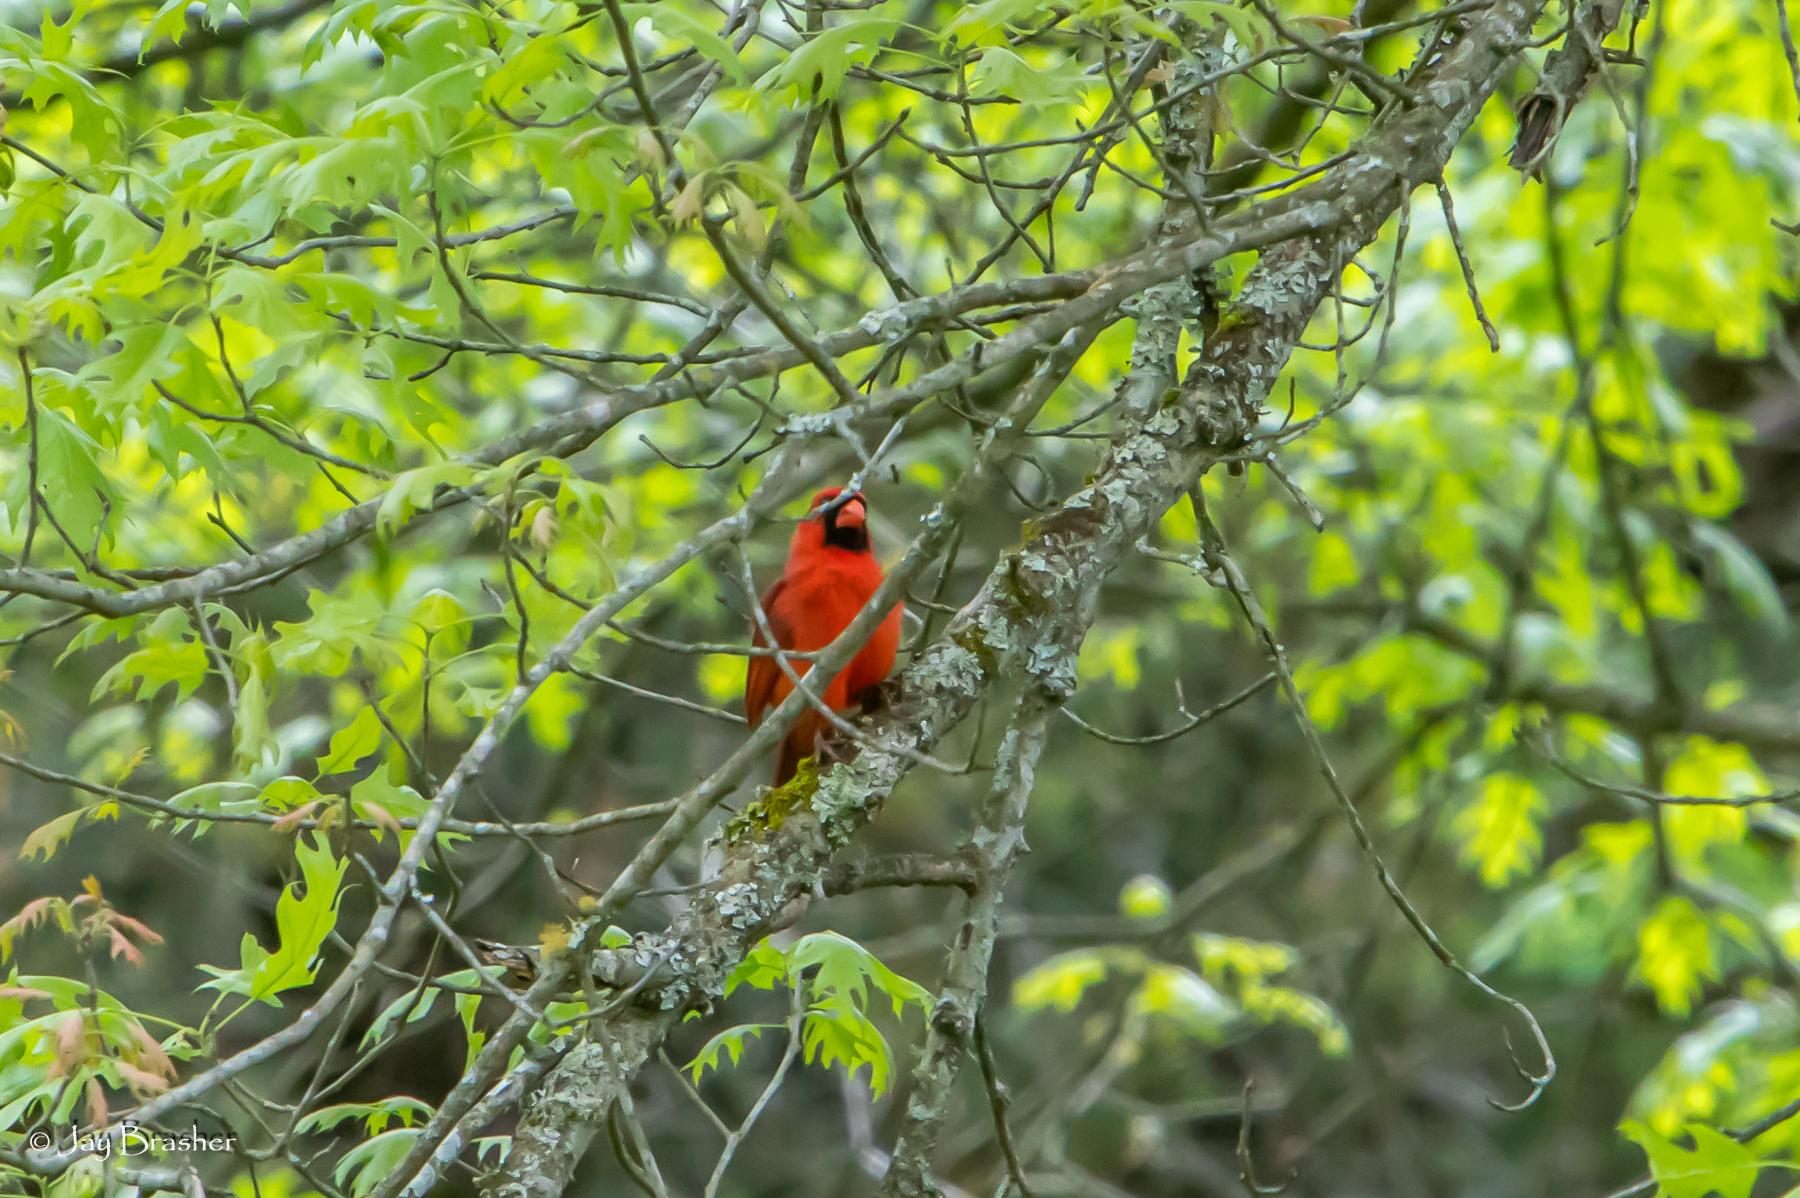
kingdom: Animalia
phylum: Chordata
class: Aves
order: Passeriformes
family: Cardinalidae
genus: Cardinalis
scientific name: Cardinalis cardinalis
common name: Northern cardinal
